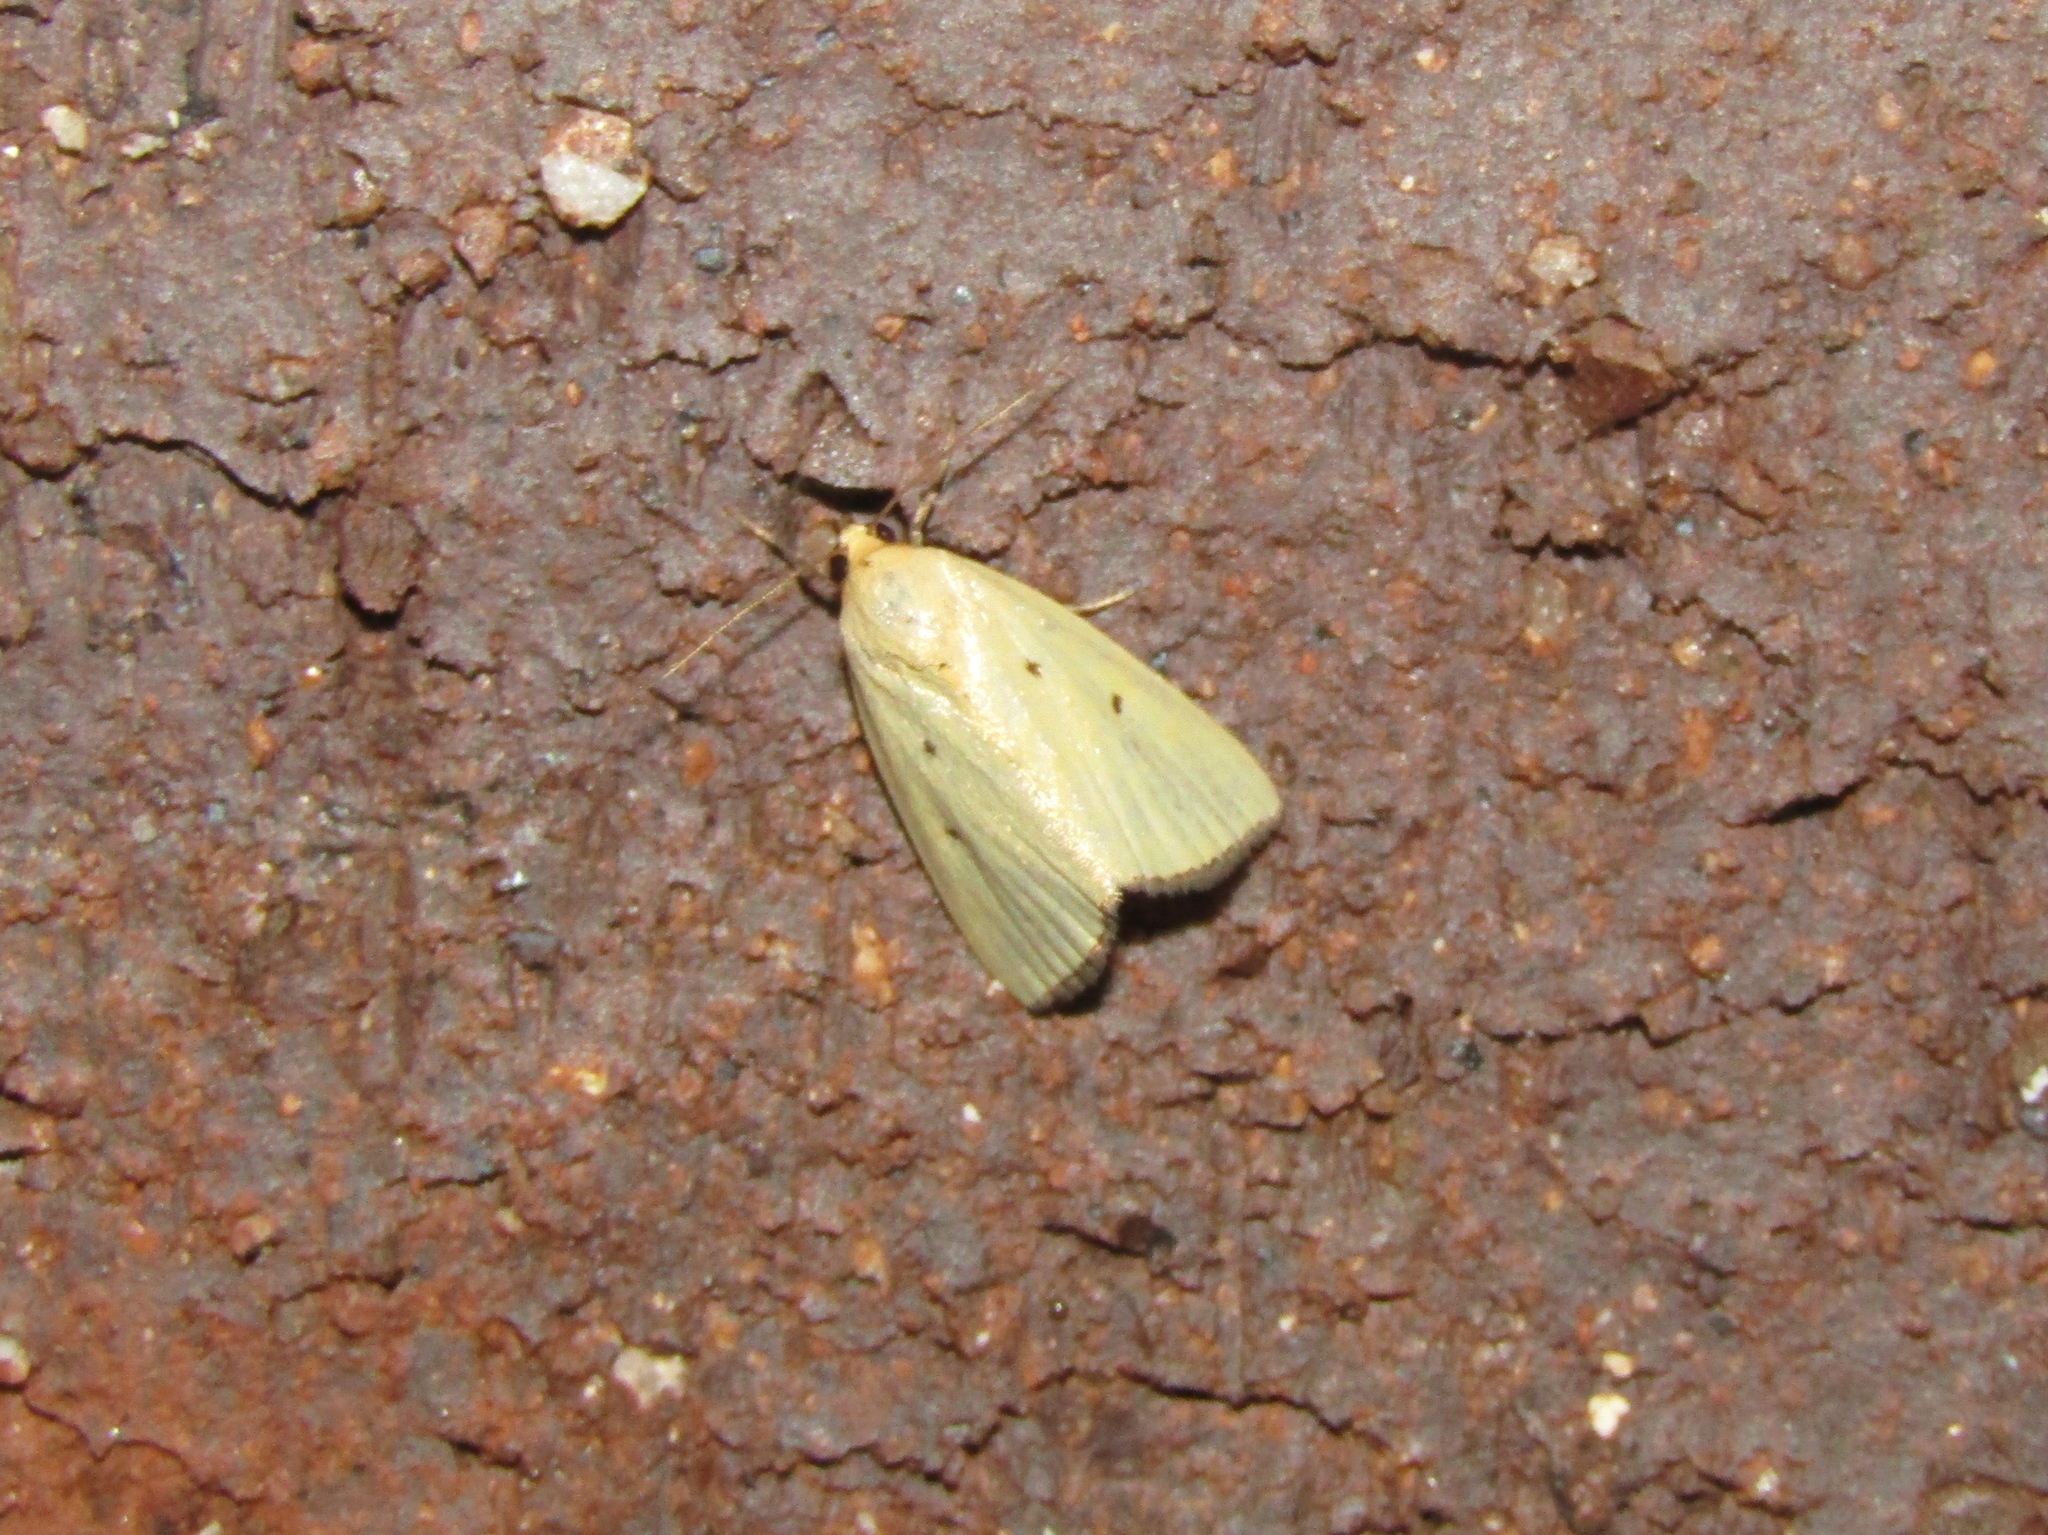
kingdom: Animalia
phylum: Arthropoda
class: Insecta
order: Lepidoptera
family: Noctuidae
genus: Marimatha
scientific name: Marimatha nigrofimbria
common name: Black-bordered lemon moth
